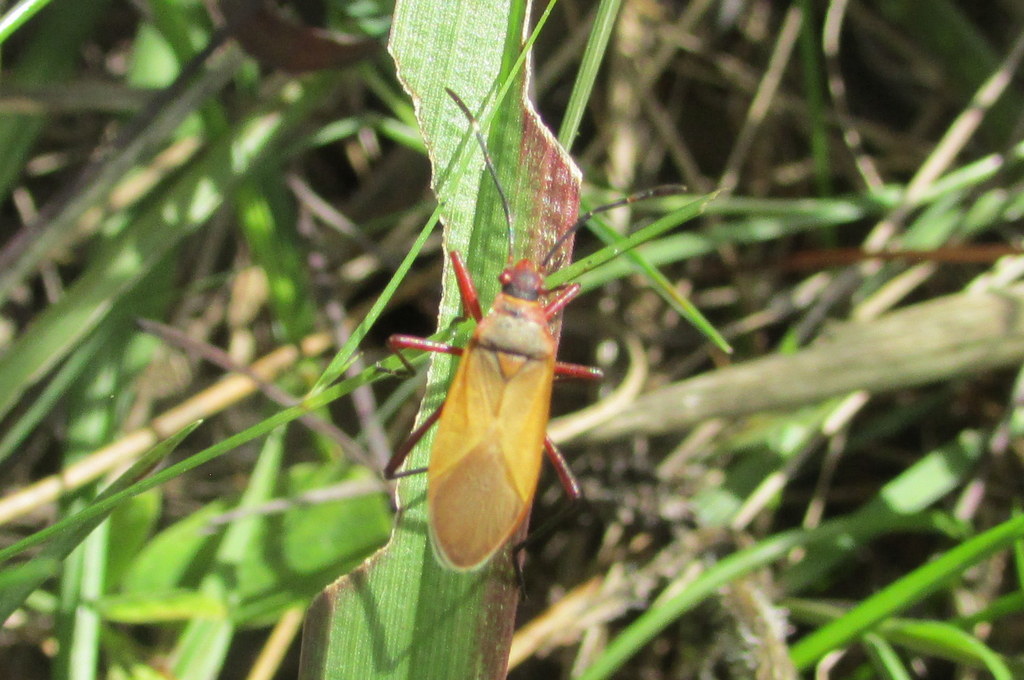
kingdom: Animalia
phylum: Arthropoda
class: Insecta
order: Hemiptera
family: Pyrrhocoridae
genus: Dysdercus
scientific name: Dysdercus
